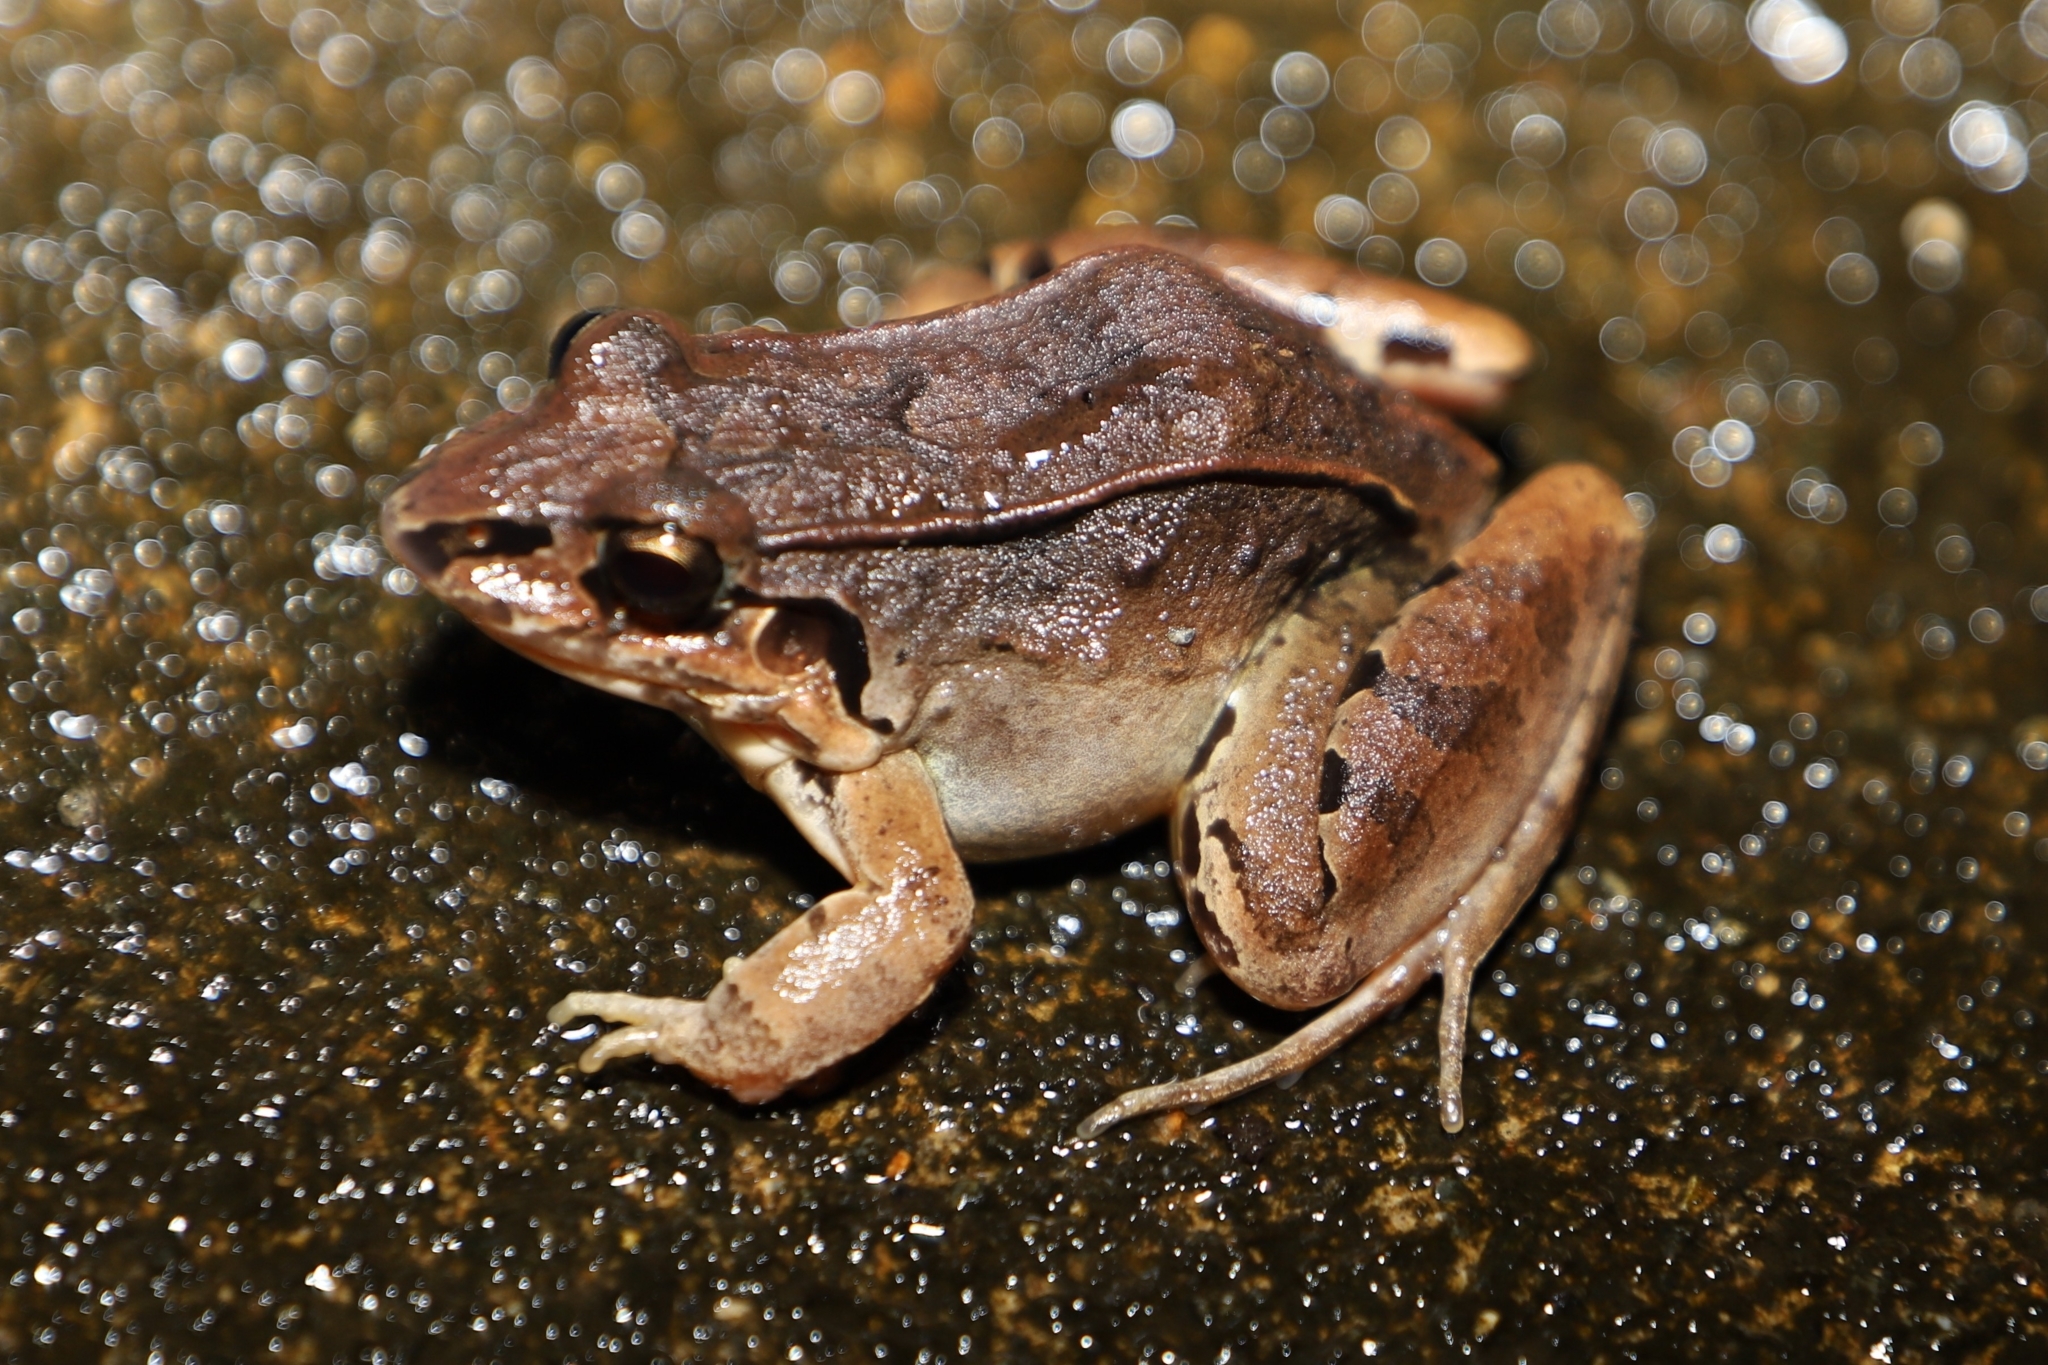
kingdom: Animalia
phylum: Chordata
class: Amphibia
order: Anura
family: Leptodactylidae
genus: Leptodactylus
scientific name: Leptodactylus poecilochilus
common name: Turbo white-lipped frog
